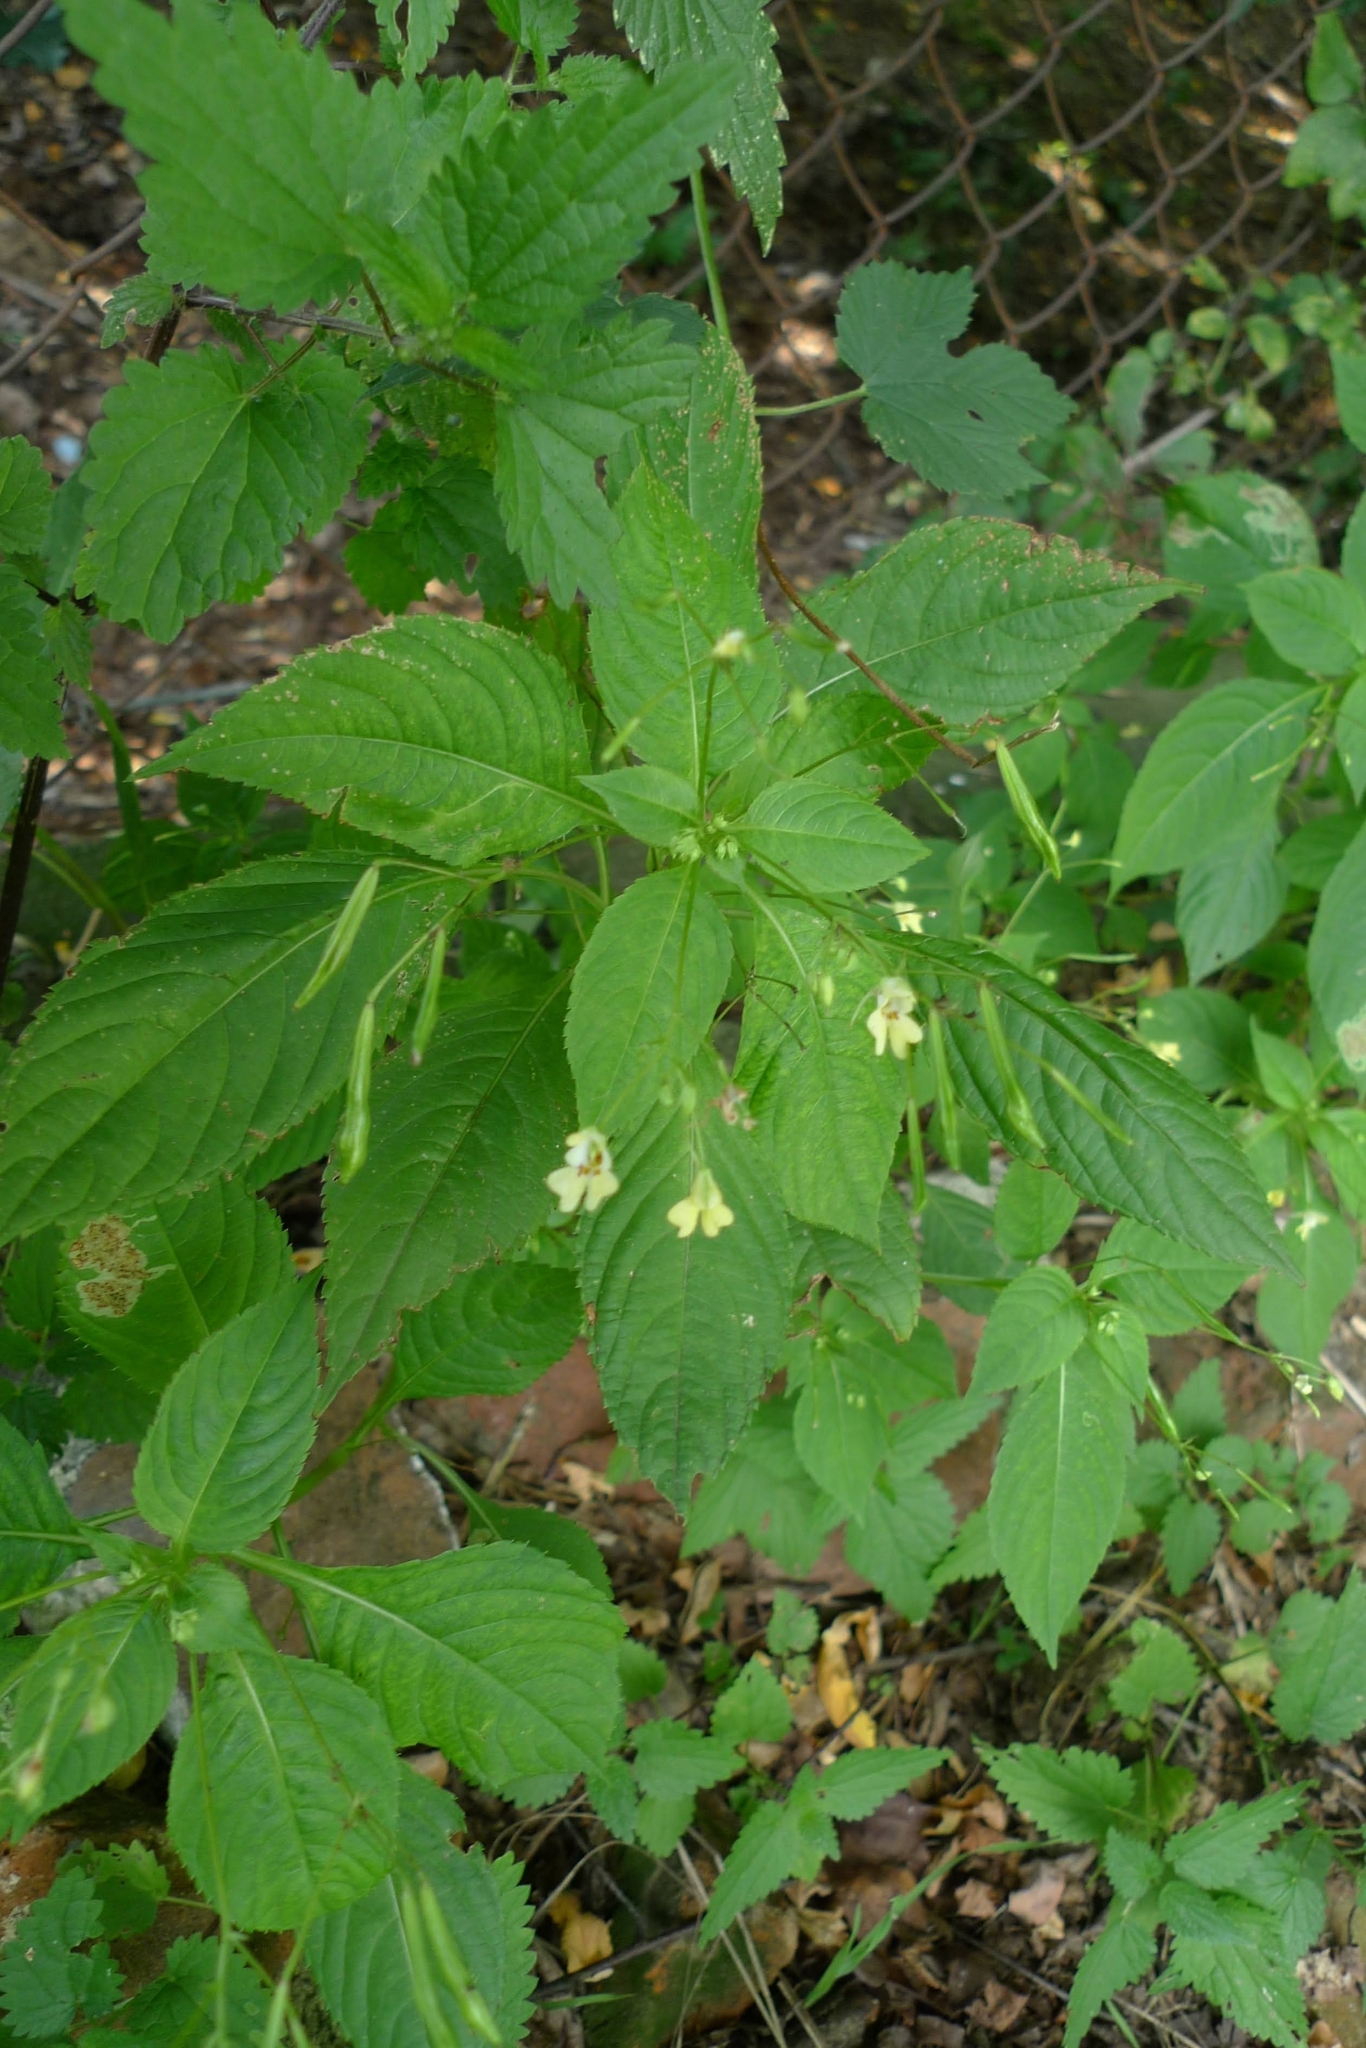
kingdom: Plantae
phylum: Tracheophyta
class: Magnoliopsida
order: Ericales
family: Balsaminaceae
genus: Impatiens
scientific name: Impatiens parviflora
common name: Small balsam
